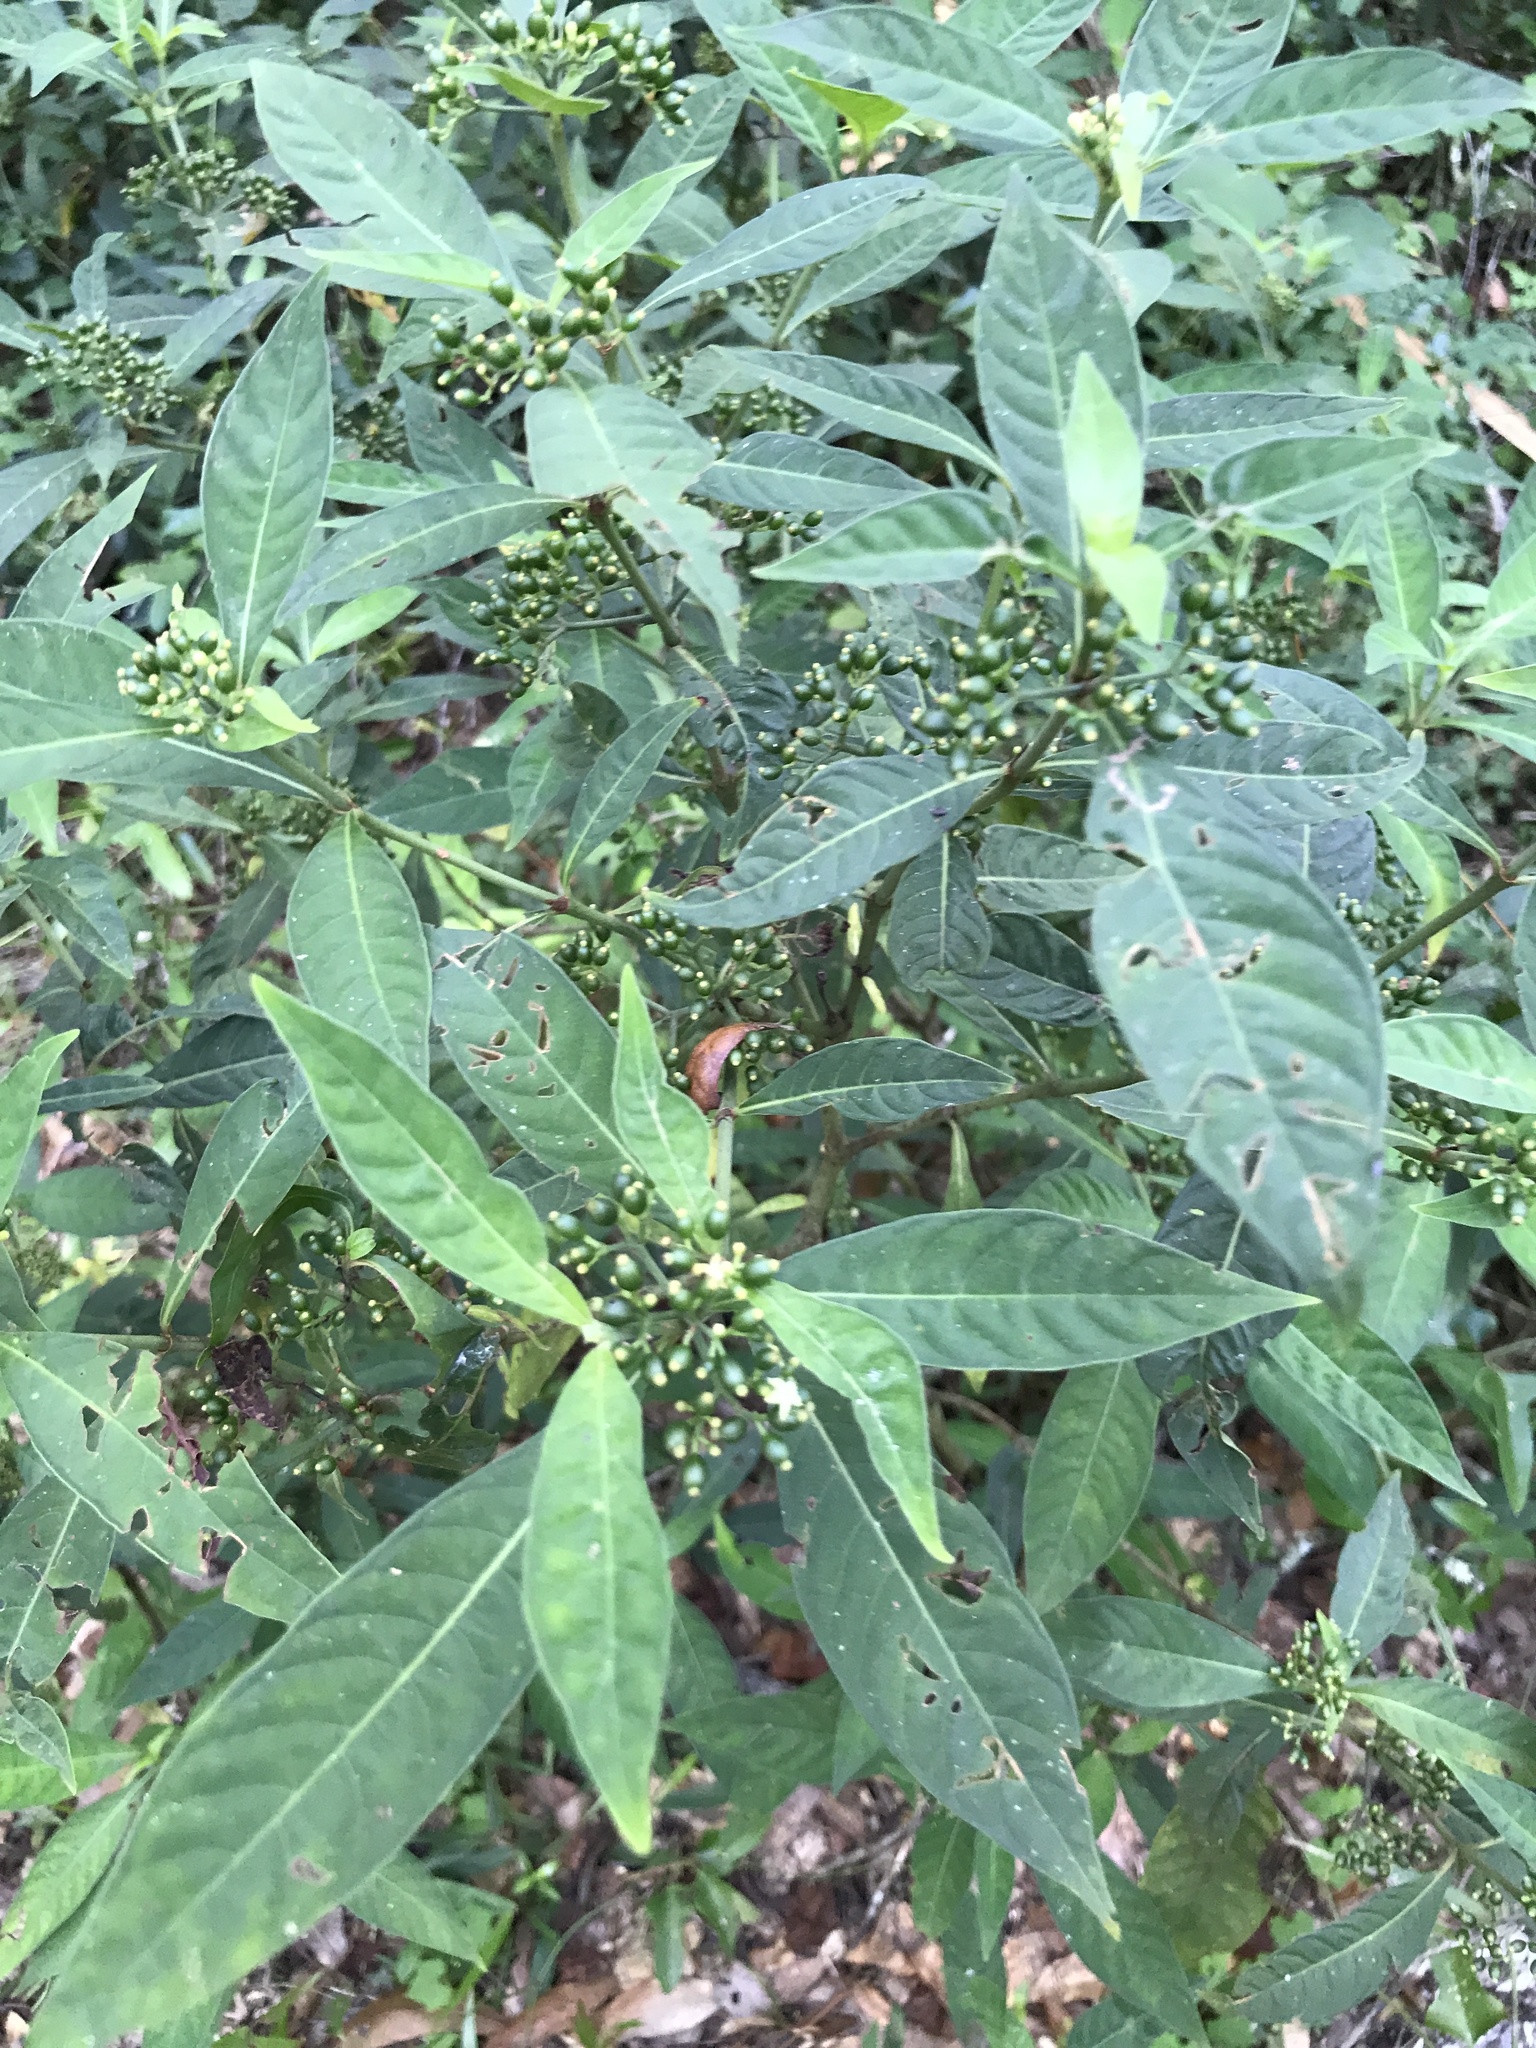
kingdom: Plantae
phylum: Tracheophyta
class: Magnoliopsida
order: Gentianales
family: Rubiaceae
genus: Psychotria
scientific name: Psychotria tenuifolia
